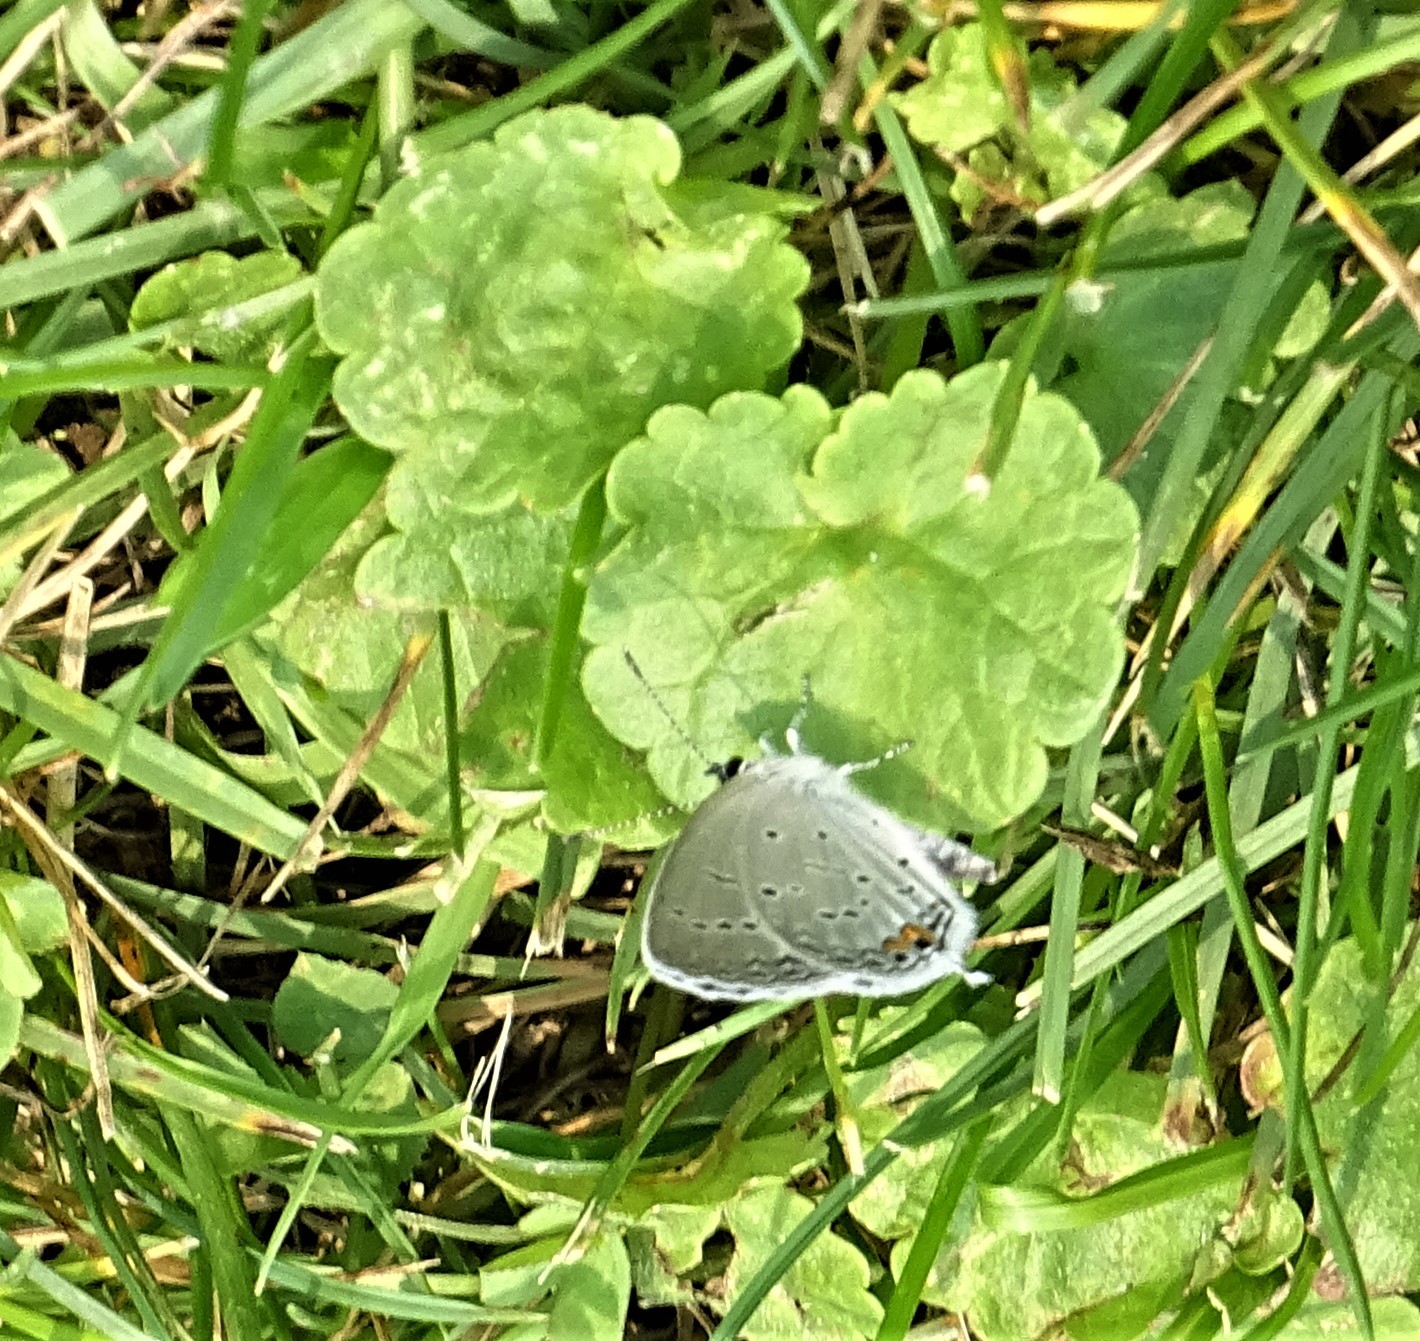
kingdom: Animalia
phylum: Arthropoda
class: Insecta
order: Lepidoptera
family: Lycaenidae
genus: Elkalyce
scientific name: Elkalyce comyntas
